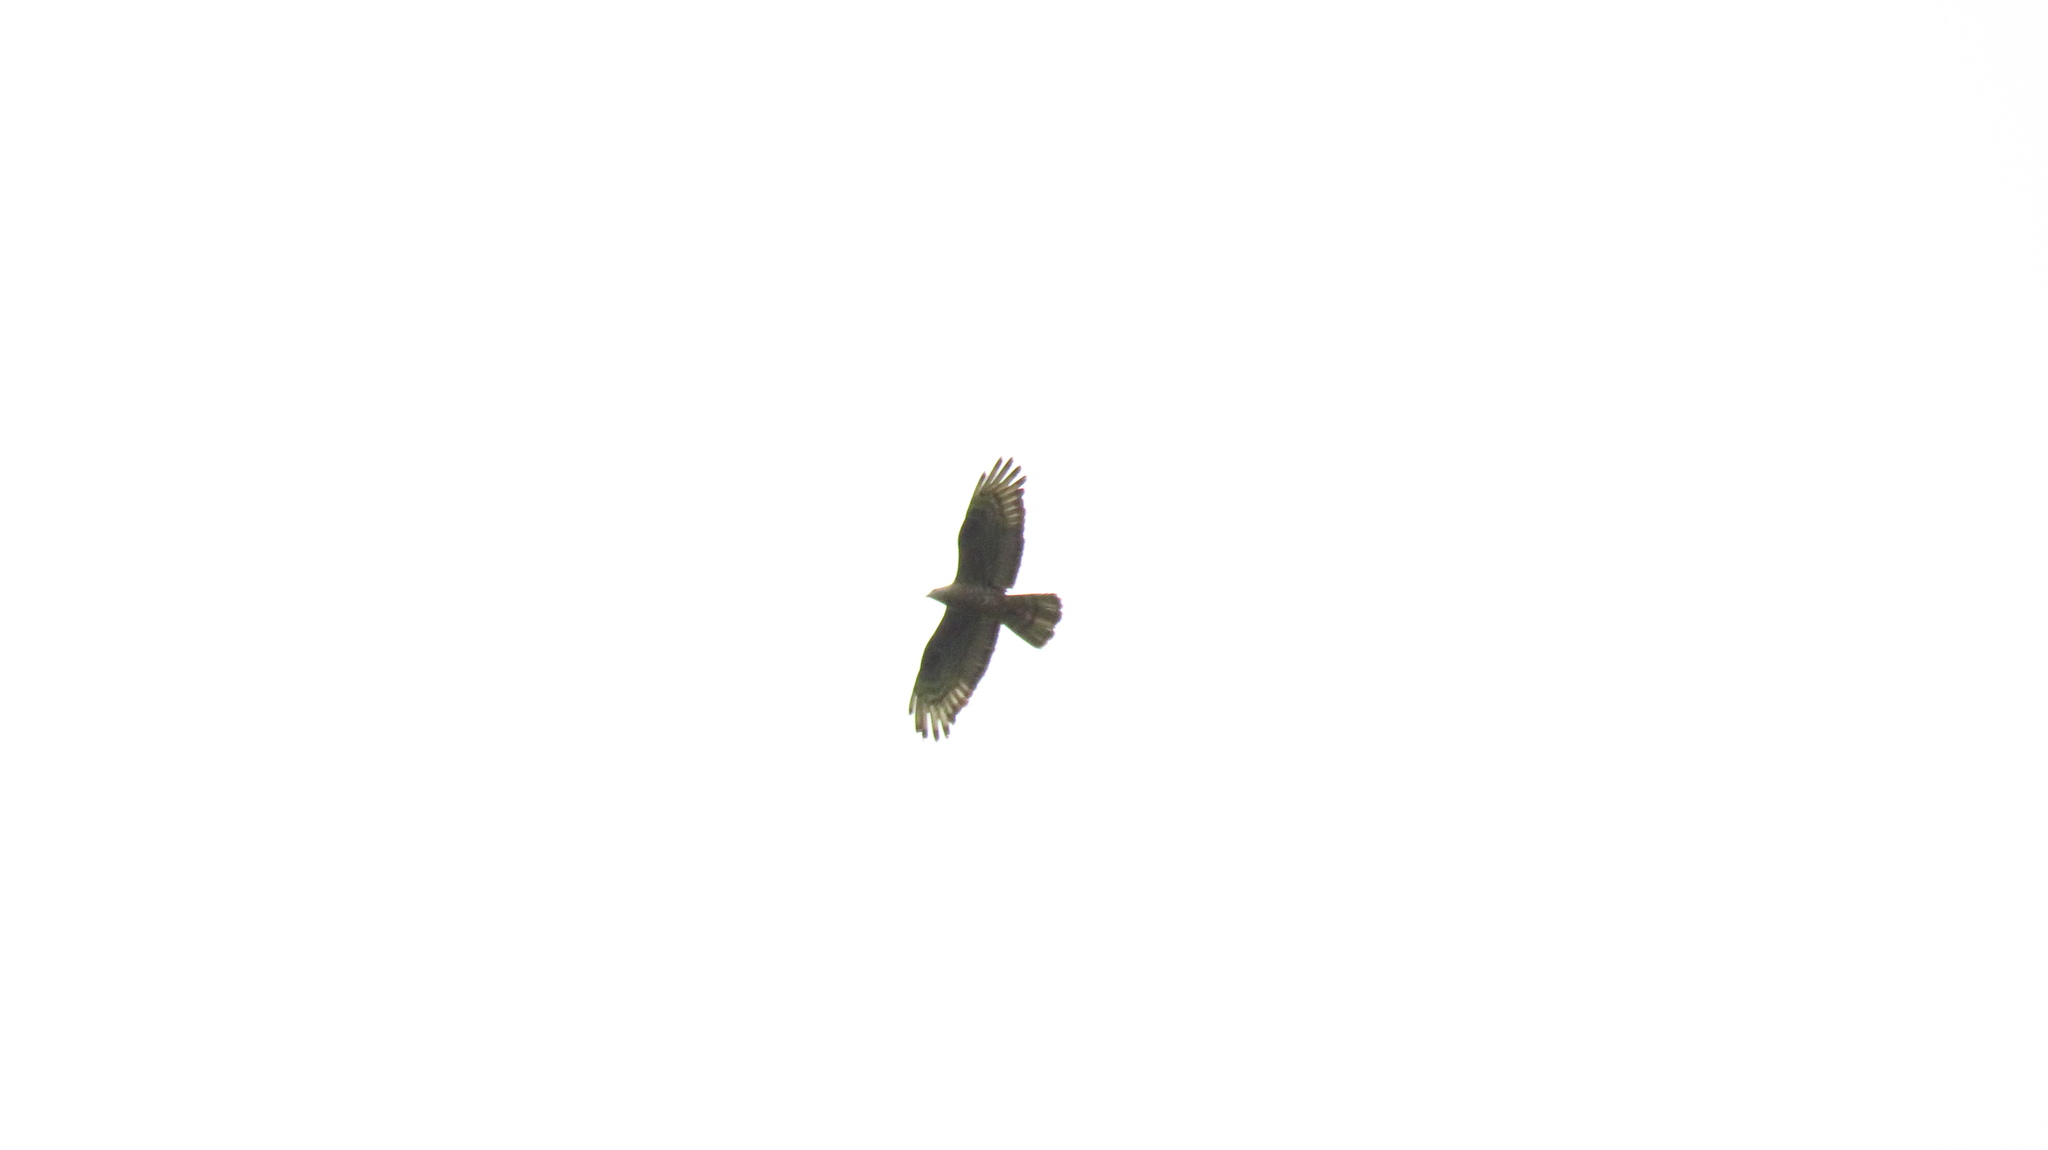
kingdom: Animalia
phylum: Chordata
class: Aves
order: Accipitriformes
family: Accipitridae
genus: Pernis
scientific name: Pernis apivorus
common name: European honey buzzard
